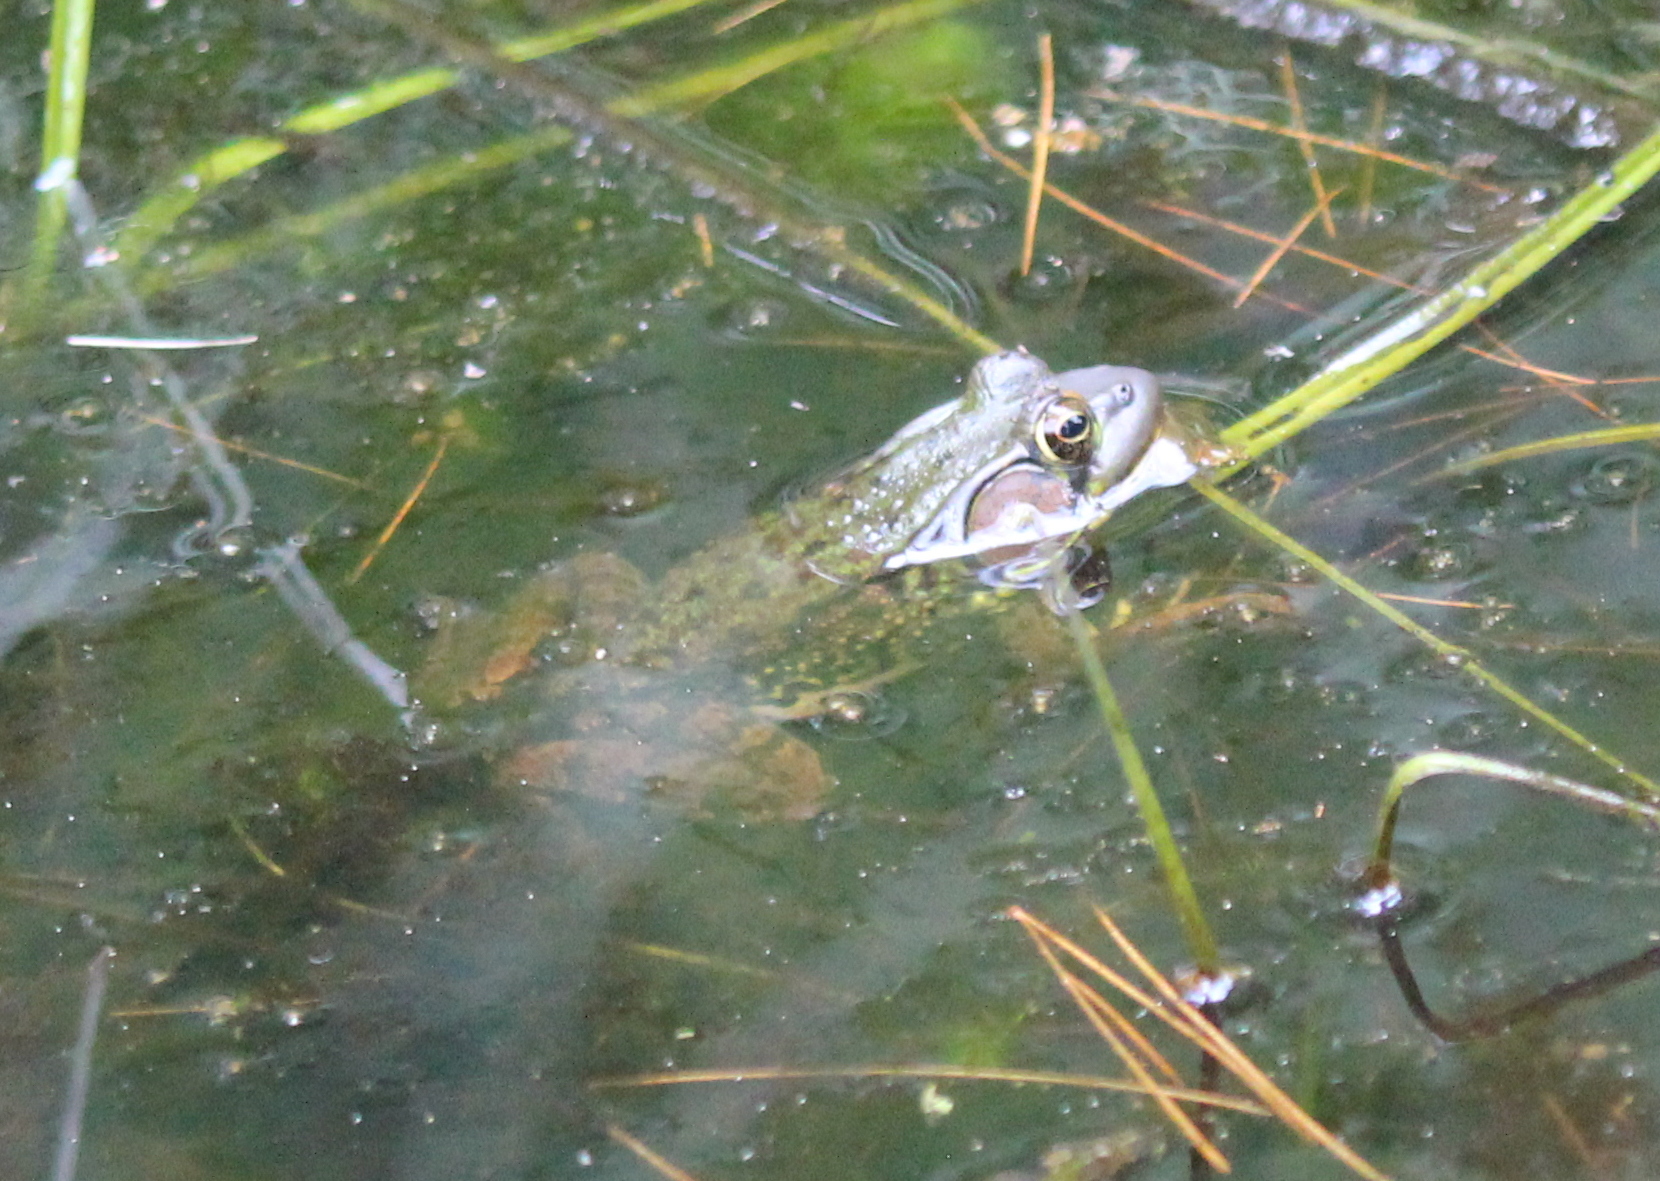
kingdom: Animalia
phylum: Chordata
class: Amphibia
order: Anura
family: Ranidae
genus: Lithobates
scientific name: Lithobates clamitans
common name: Green frog
